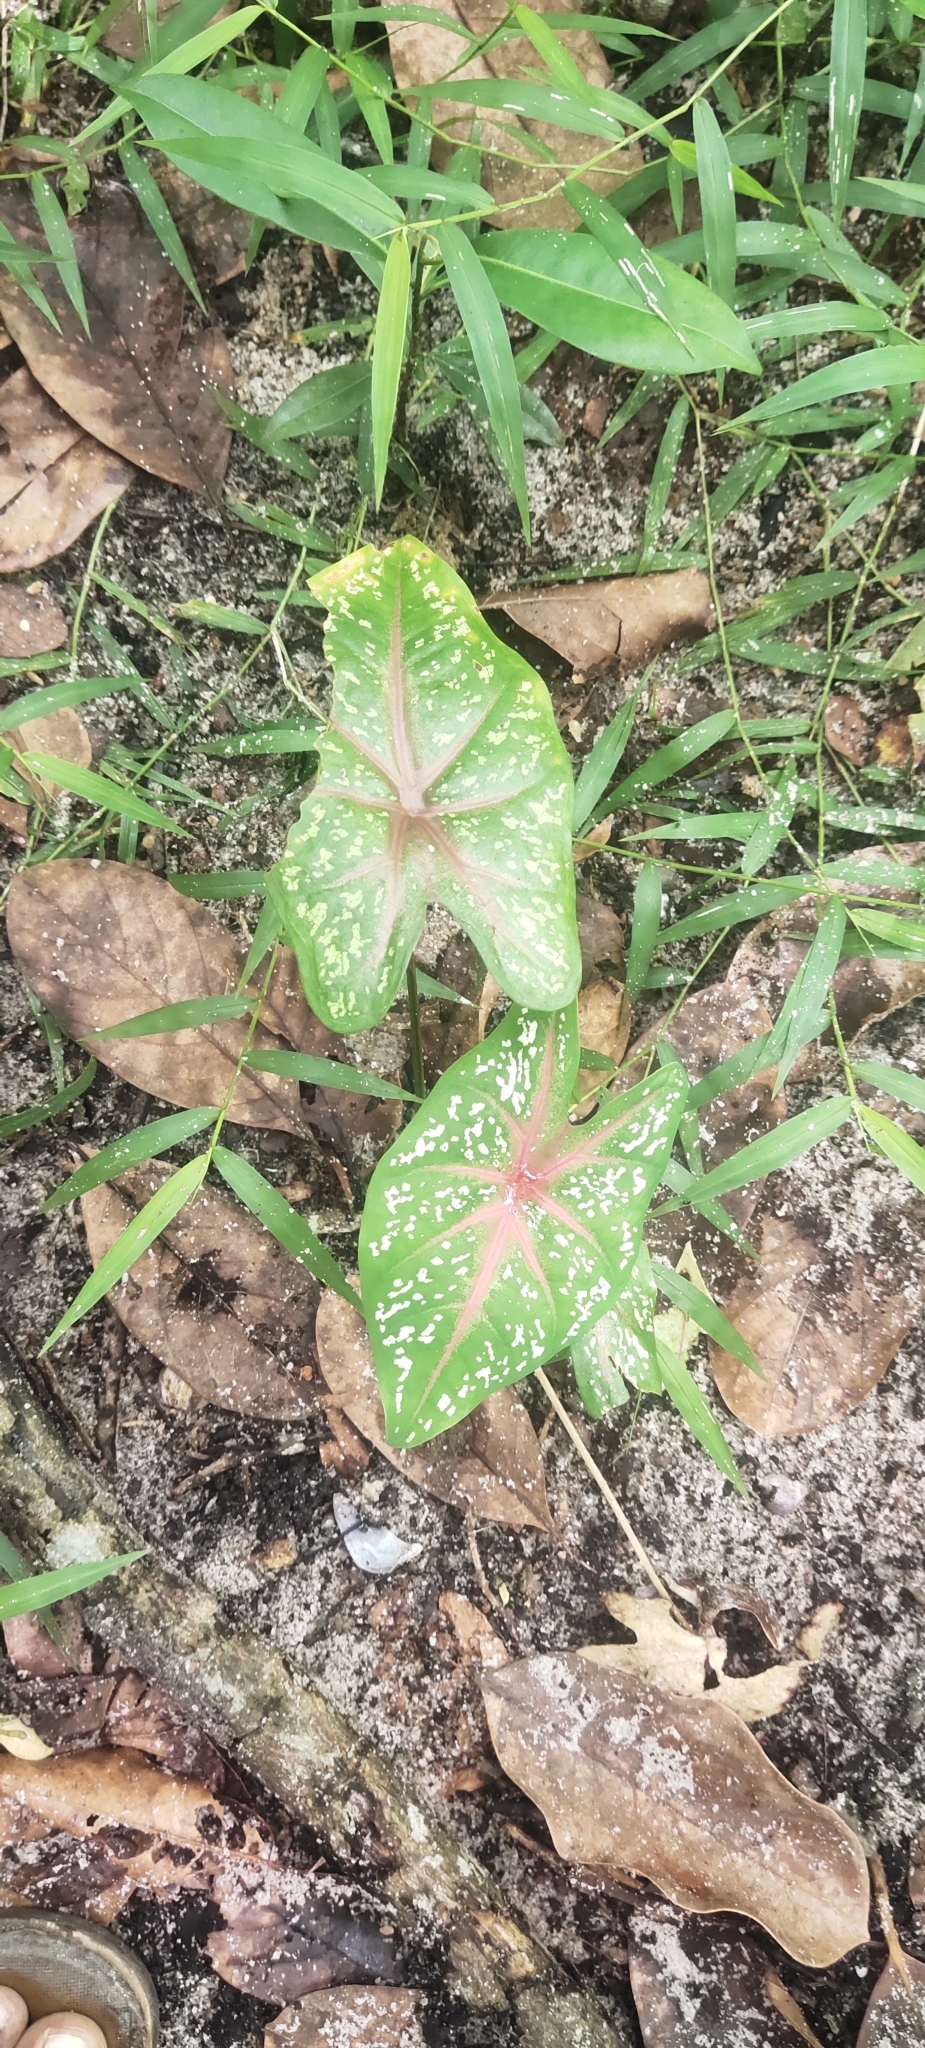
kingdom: Plantae
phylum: Tracheophyta
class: Liliopsida
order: Alismatales
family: Araceae
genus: Caladium
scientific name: Caladium bicolor
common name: Artist's pallet
